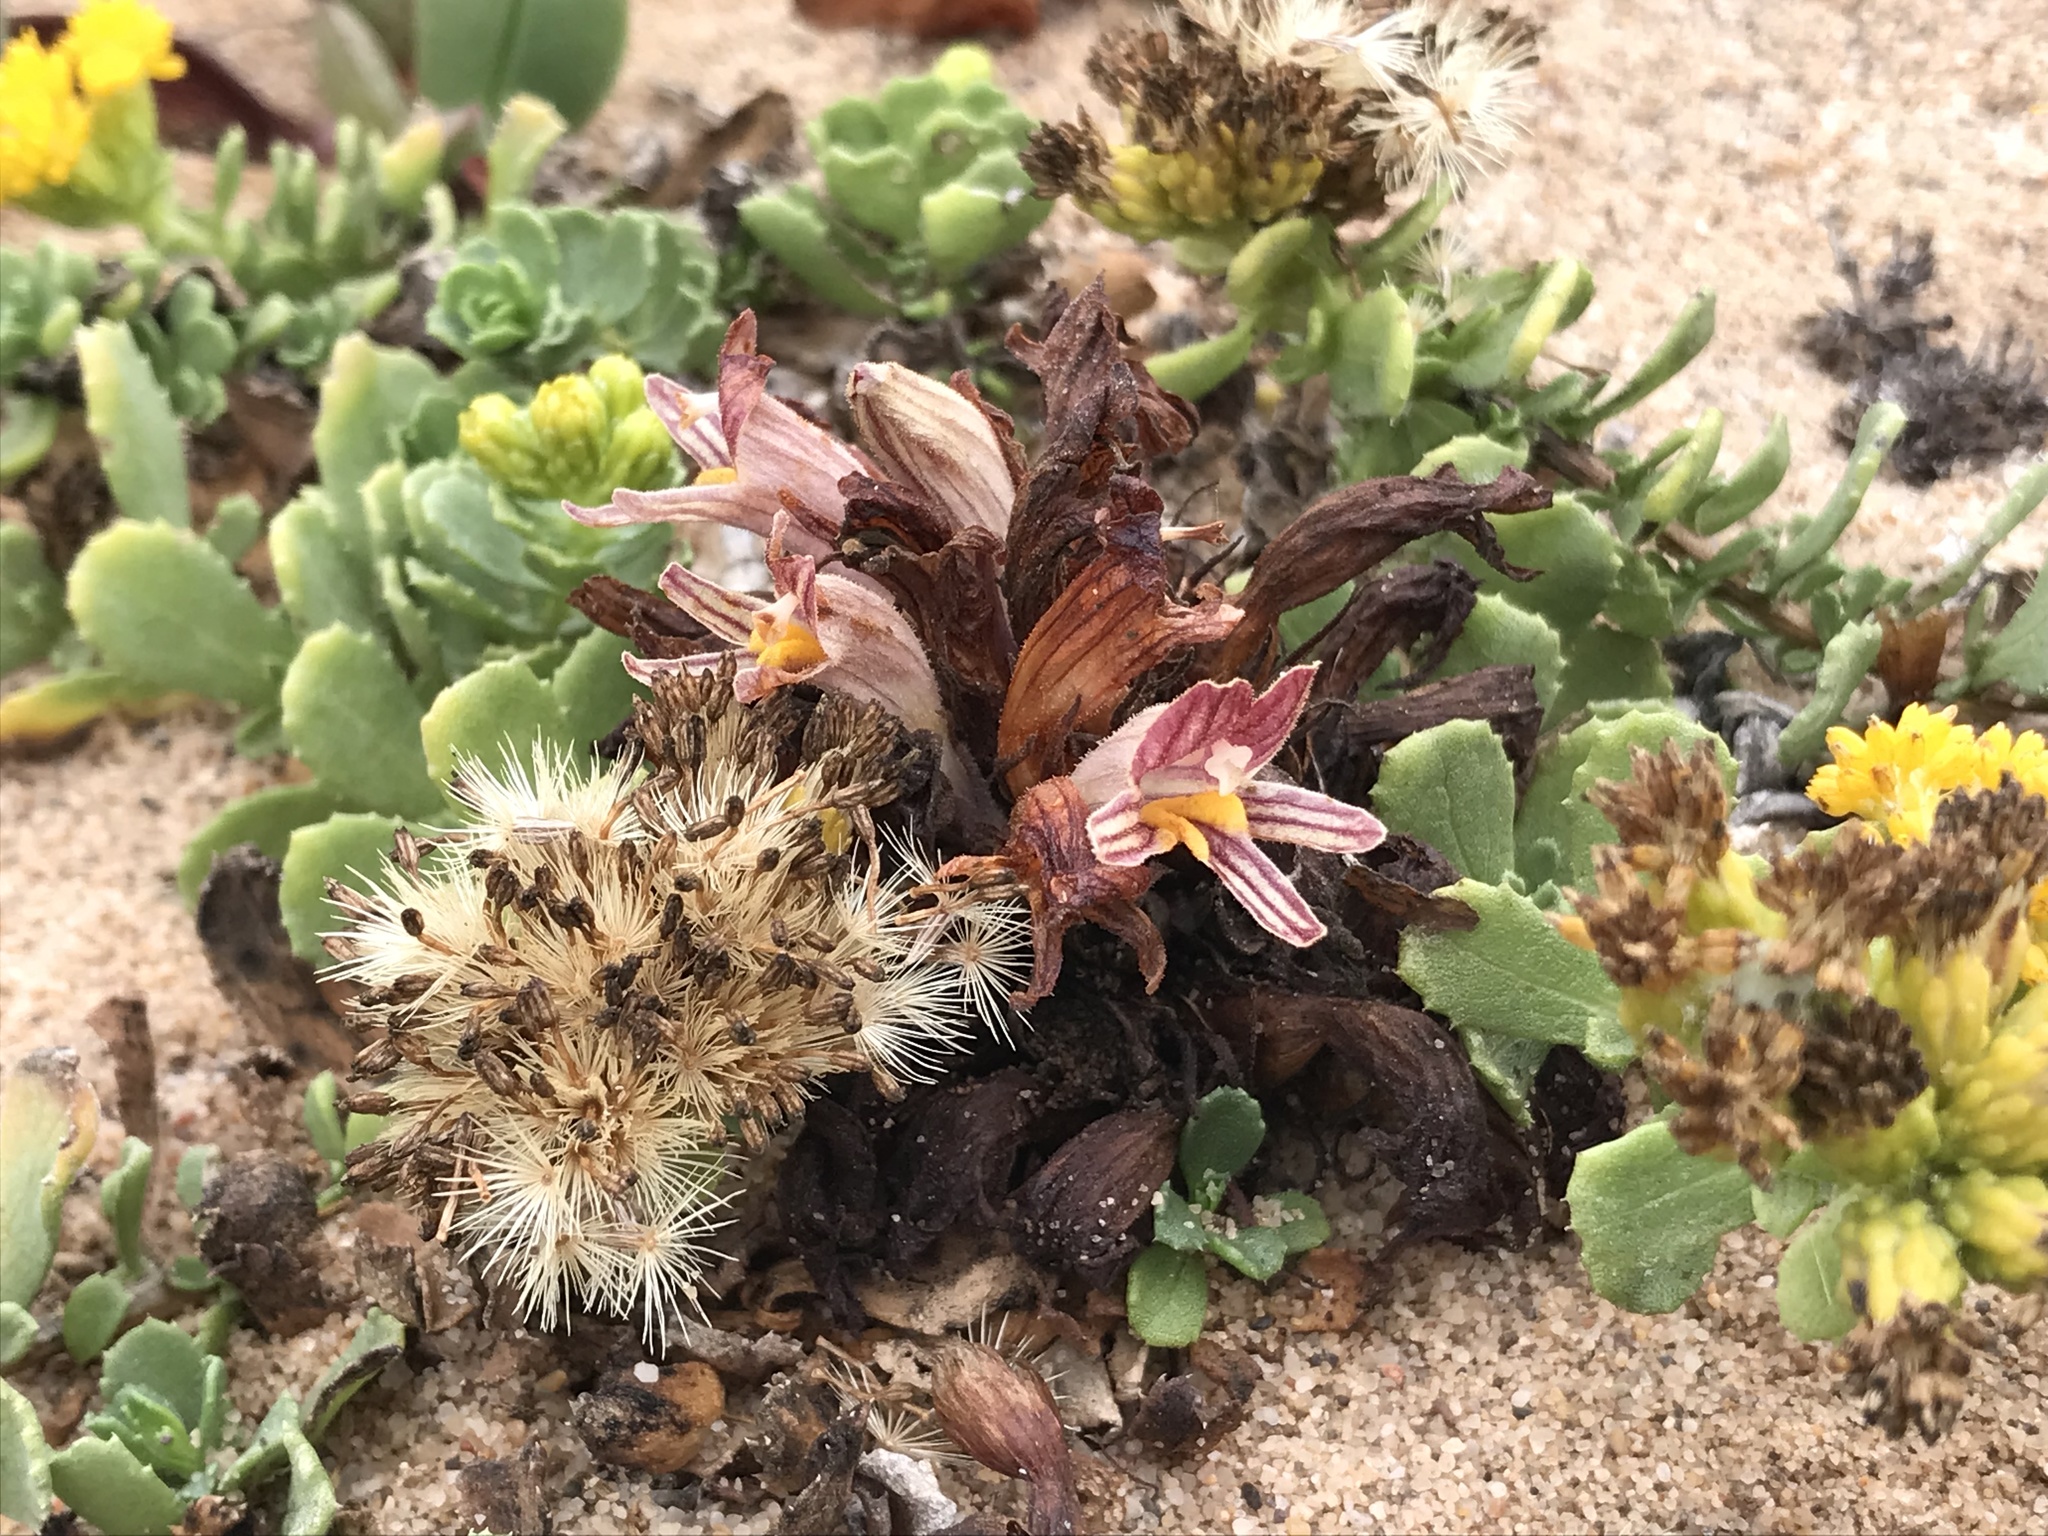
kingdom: Plantae
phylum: Tracheophyta
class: Magnoliopsida
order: Lamiales
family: Orobanchaceae
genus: Aphyllon
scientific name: Aphyllon californicum
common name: California broomrape
